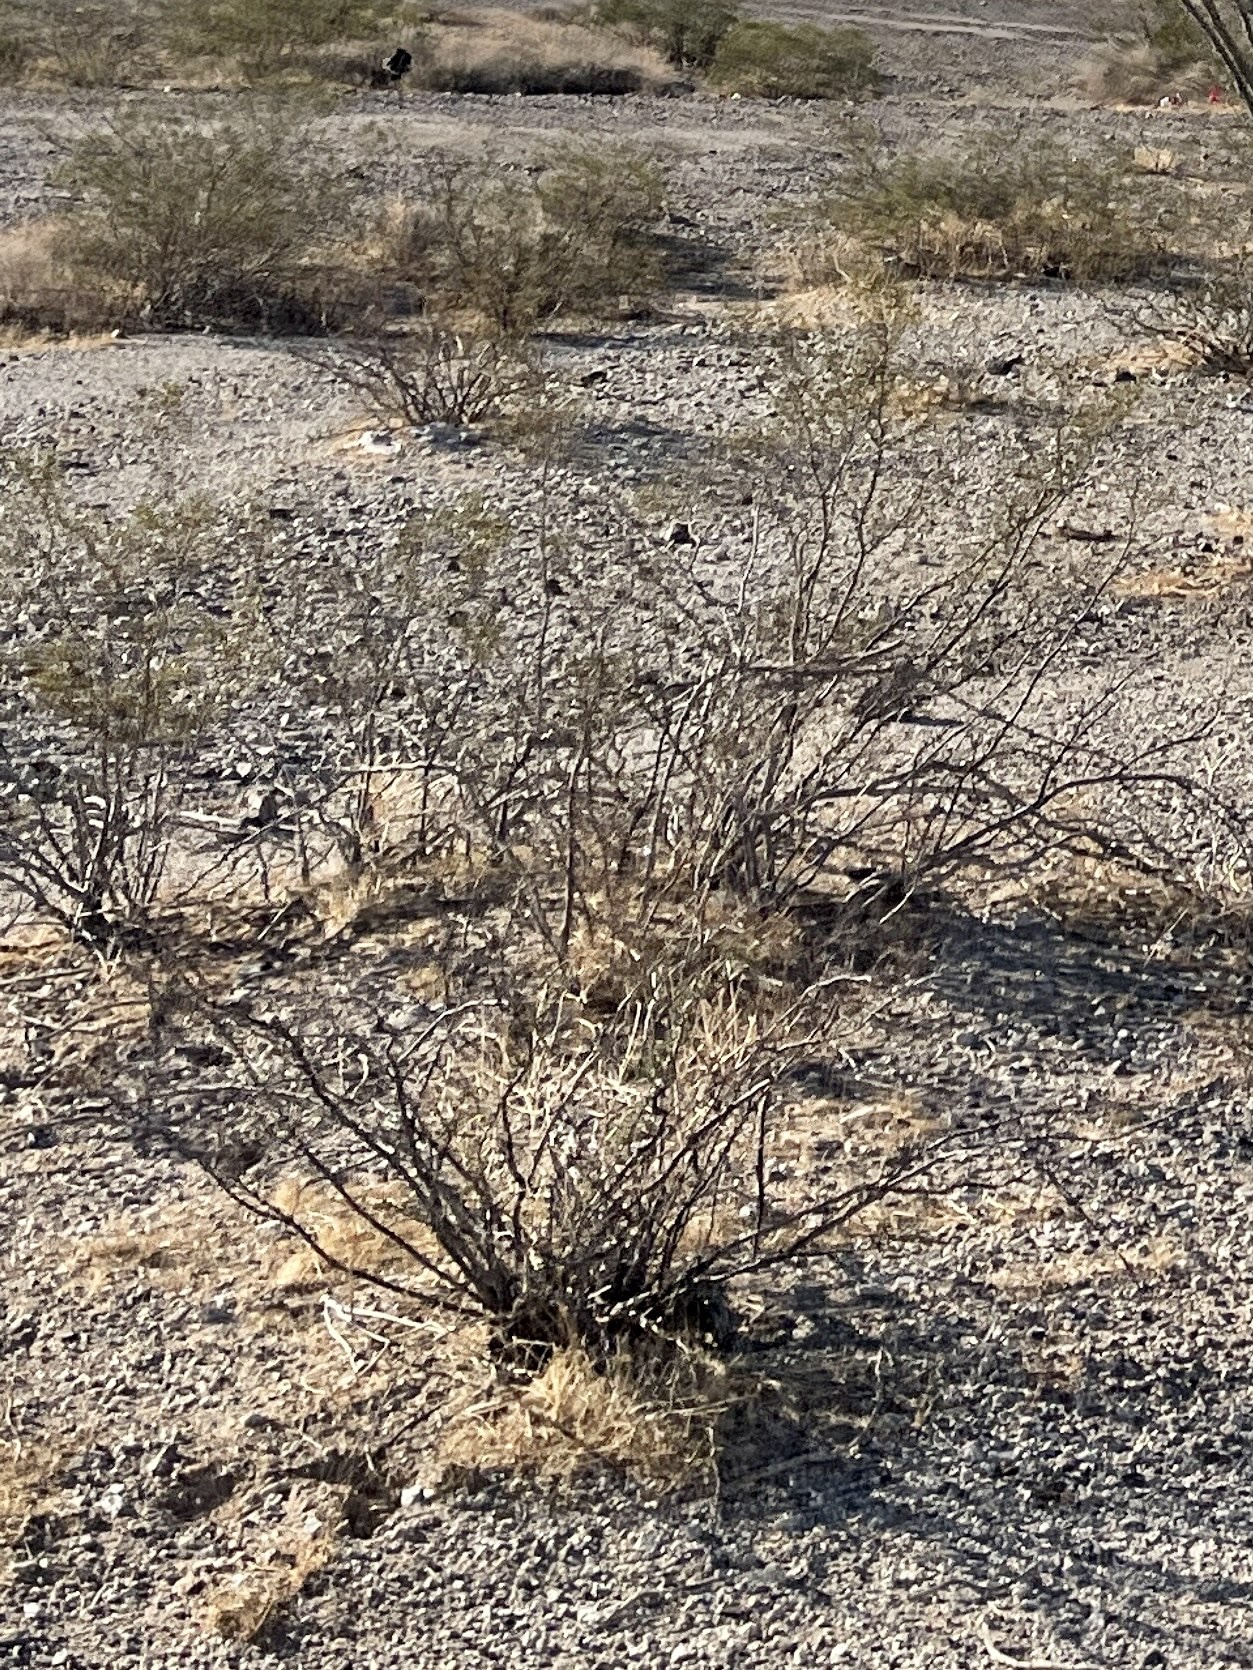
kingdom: Plantae
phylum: Tracheophyta
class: Magnoliopsida
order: Zygophyllales
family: Zygophyllaceae
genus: Larrea
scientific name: Larrea tridentata
